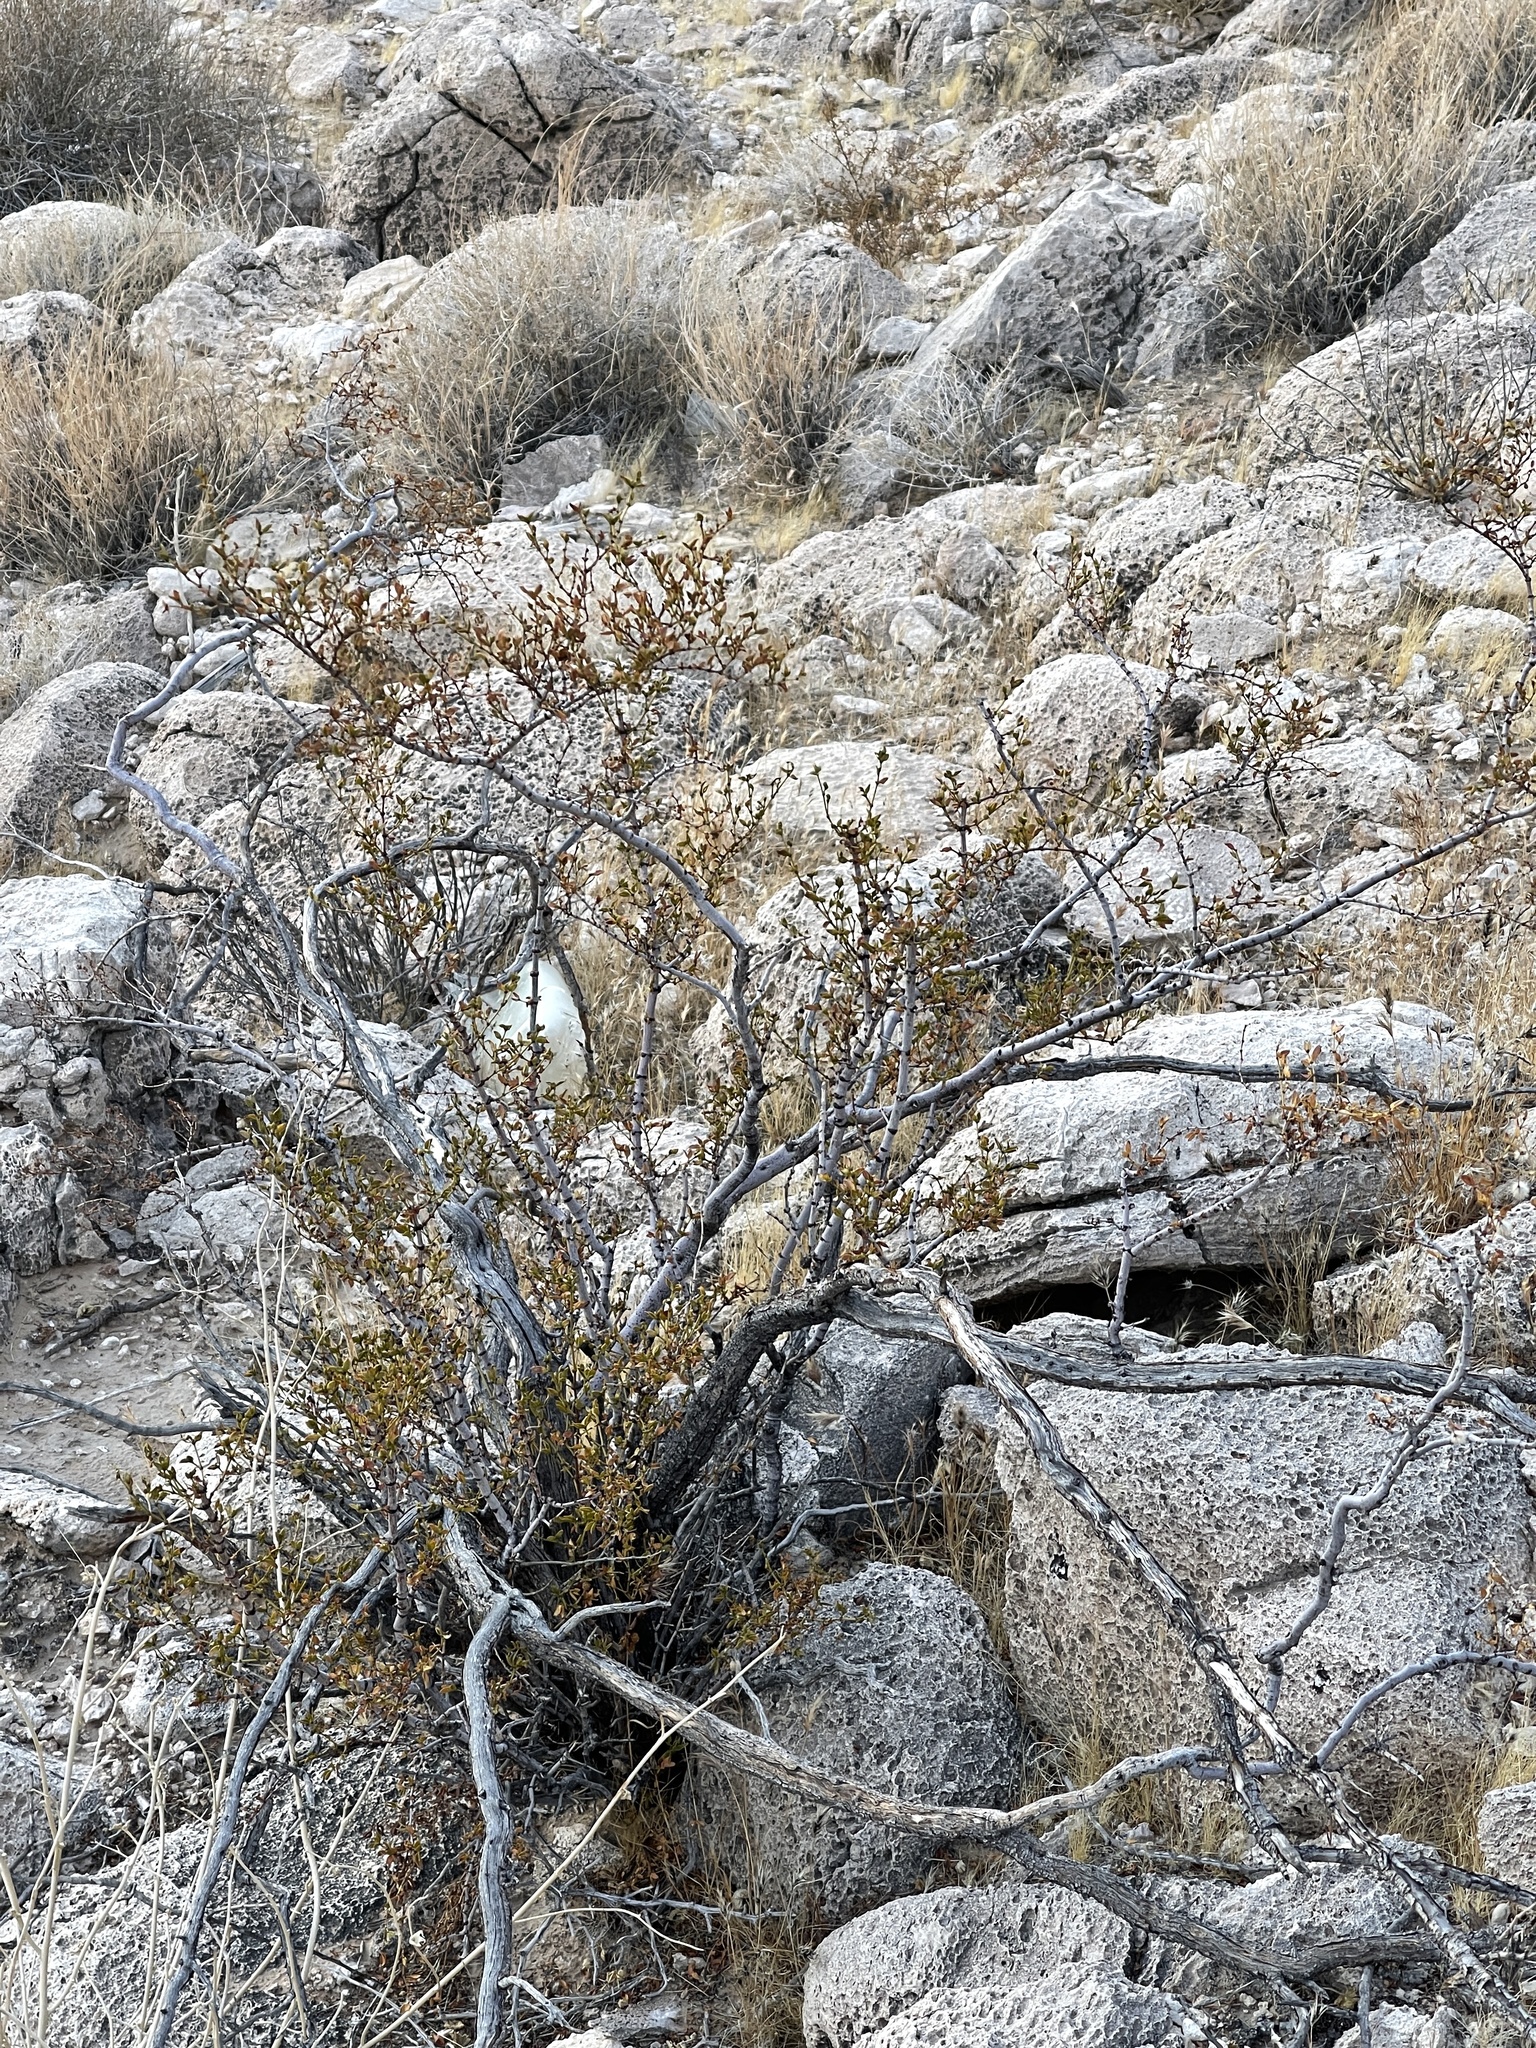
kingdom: Plantae
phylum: Tracheophyta
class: Magnoliopsida
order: Zygophyllales
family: Zygophyllaceae
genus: Larrea
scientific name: Larrea tridentata
